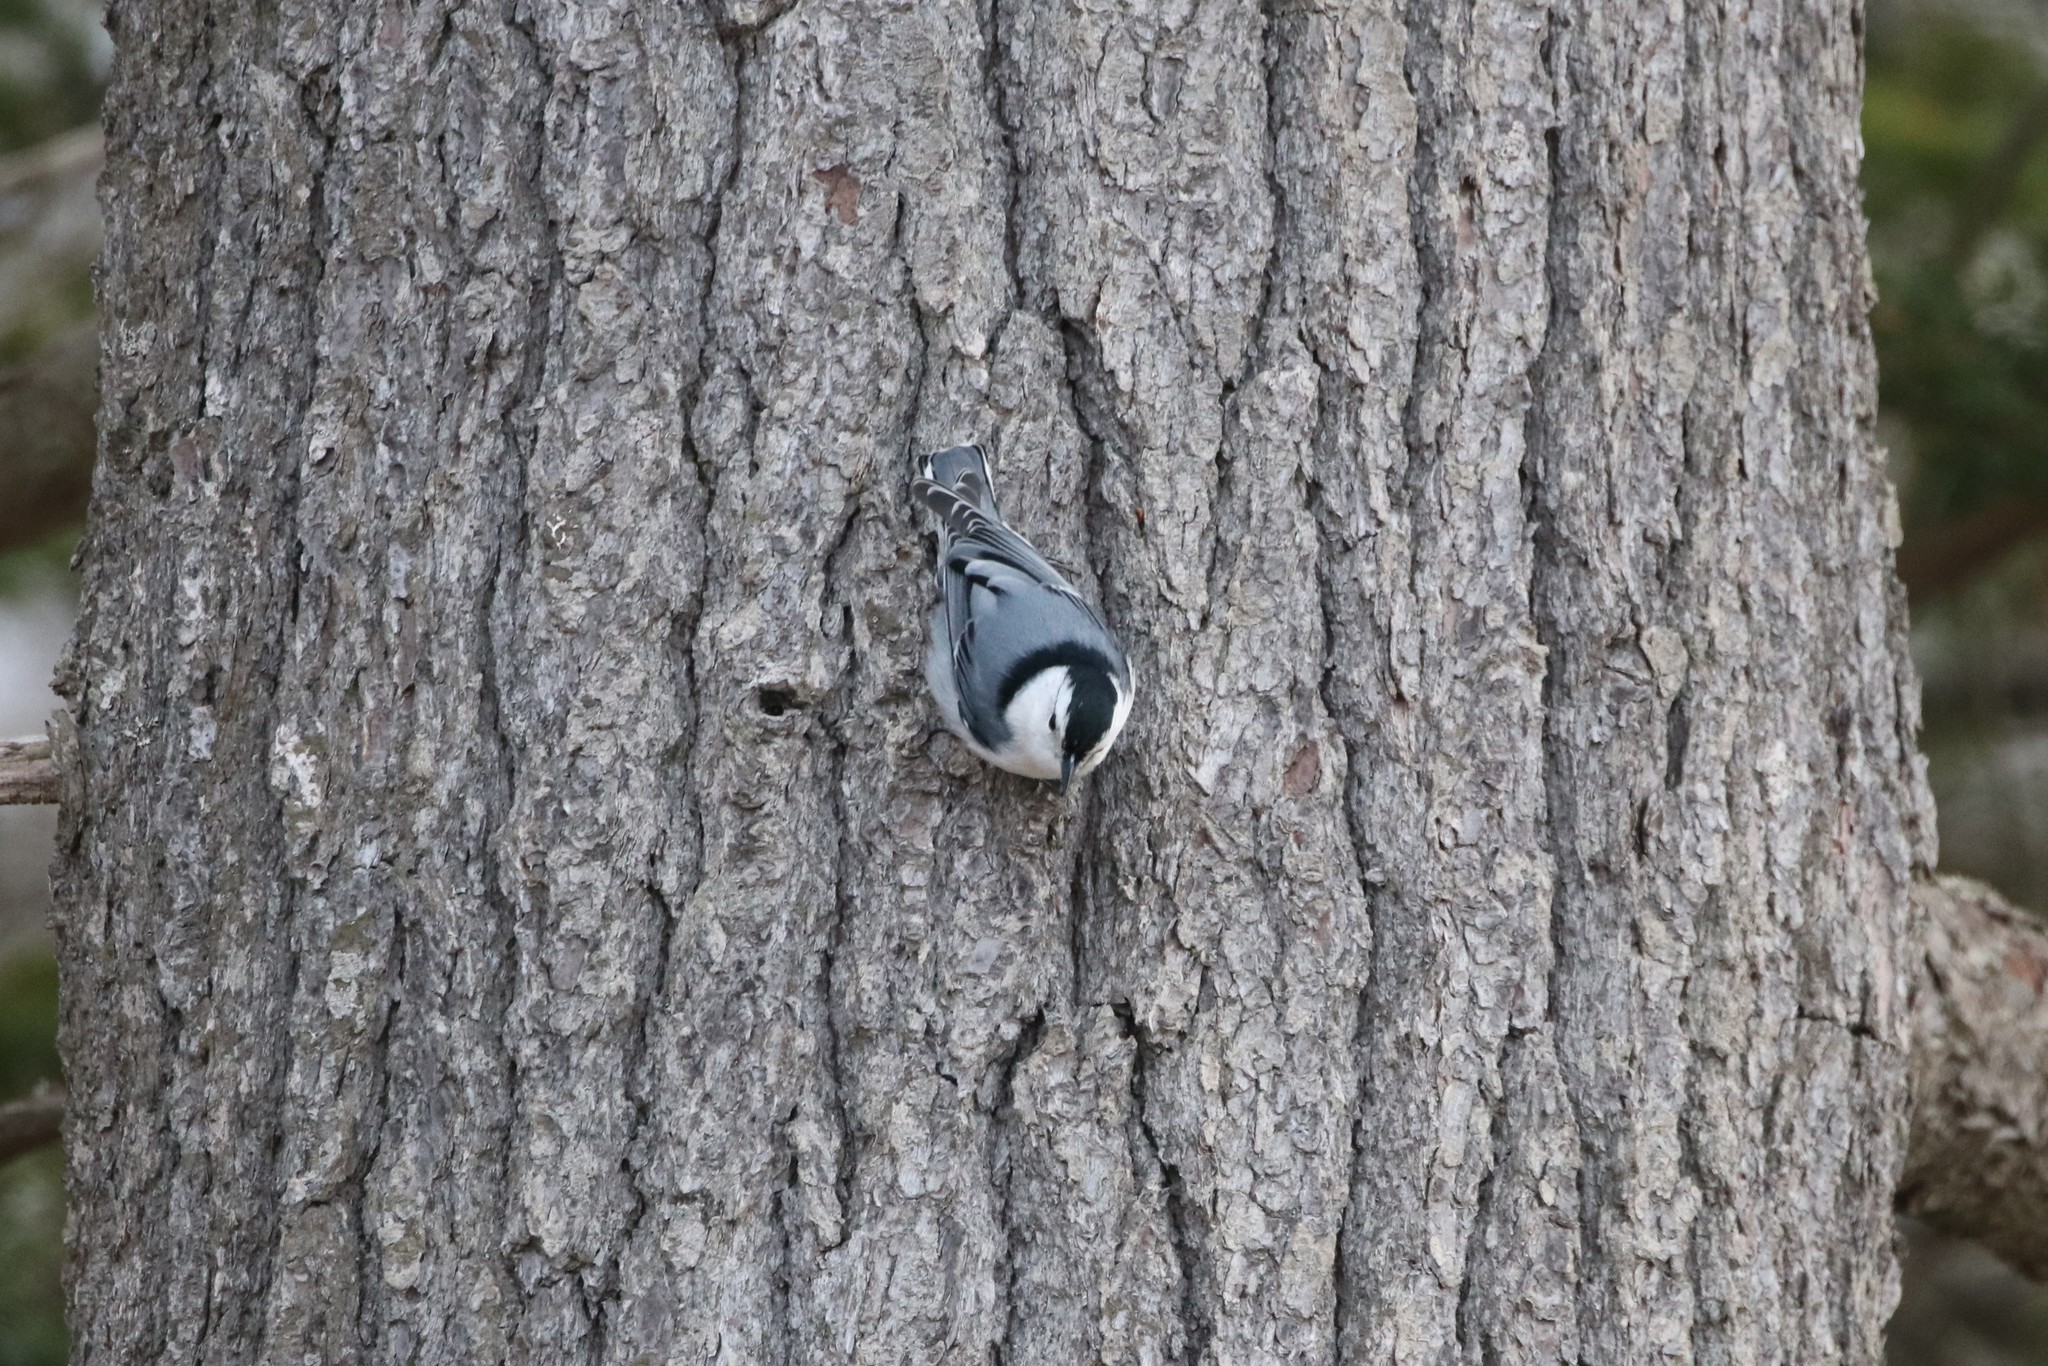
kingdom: Animalia
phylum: Chordata
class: Aves
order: Passeriformes
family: Sittidae
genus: Sitta
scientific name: Sitta carolinensis
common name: White-breasted nuthatch
